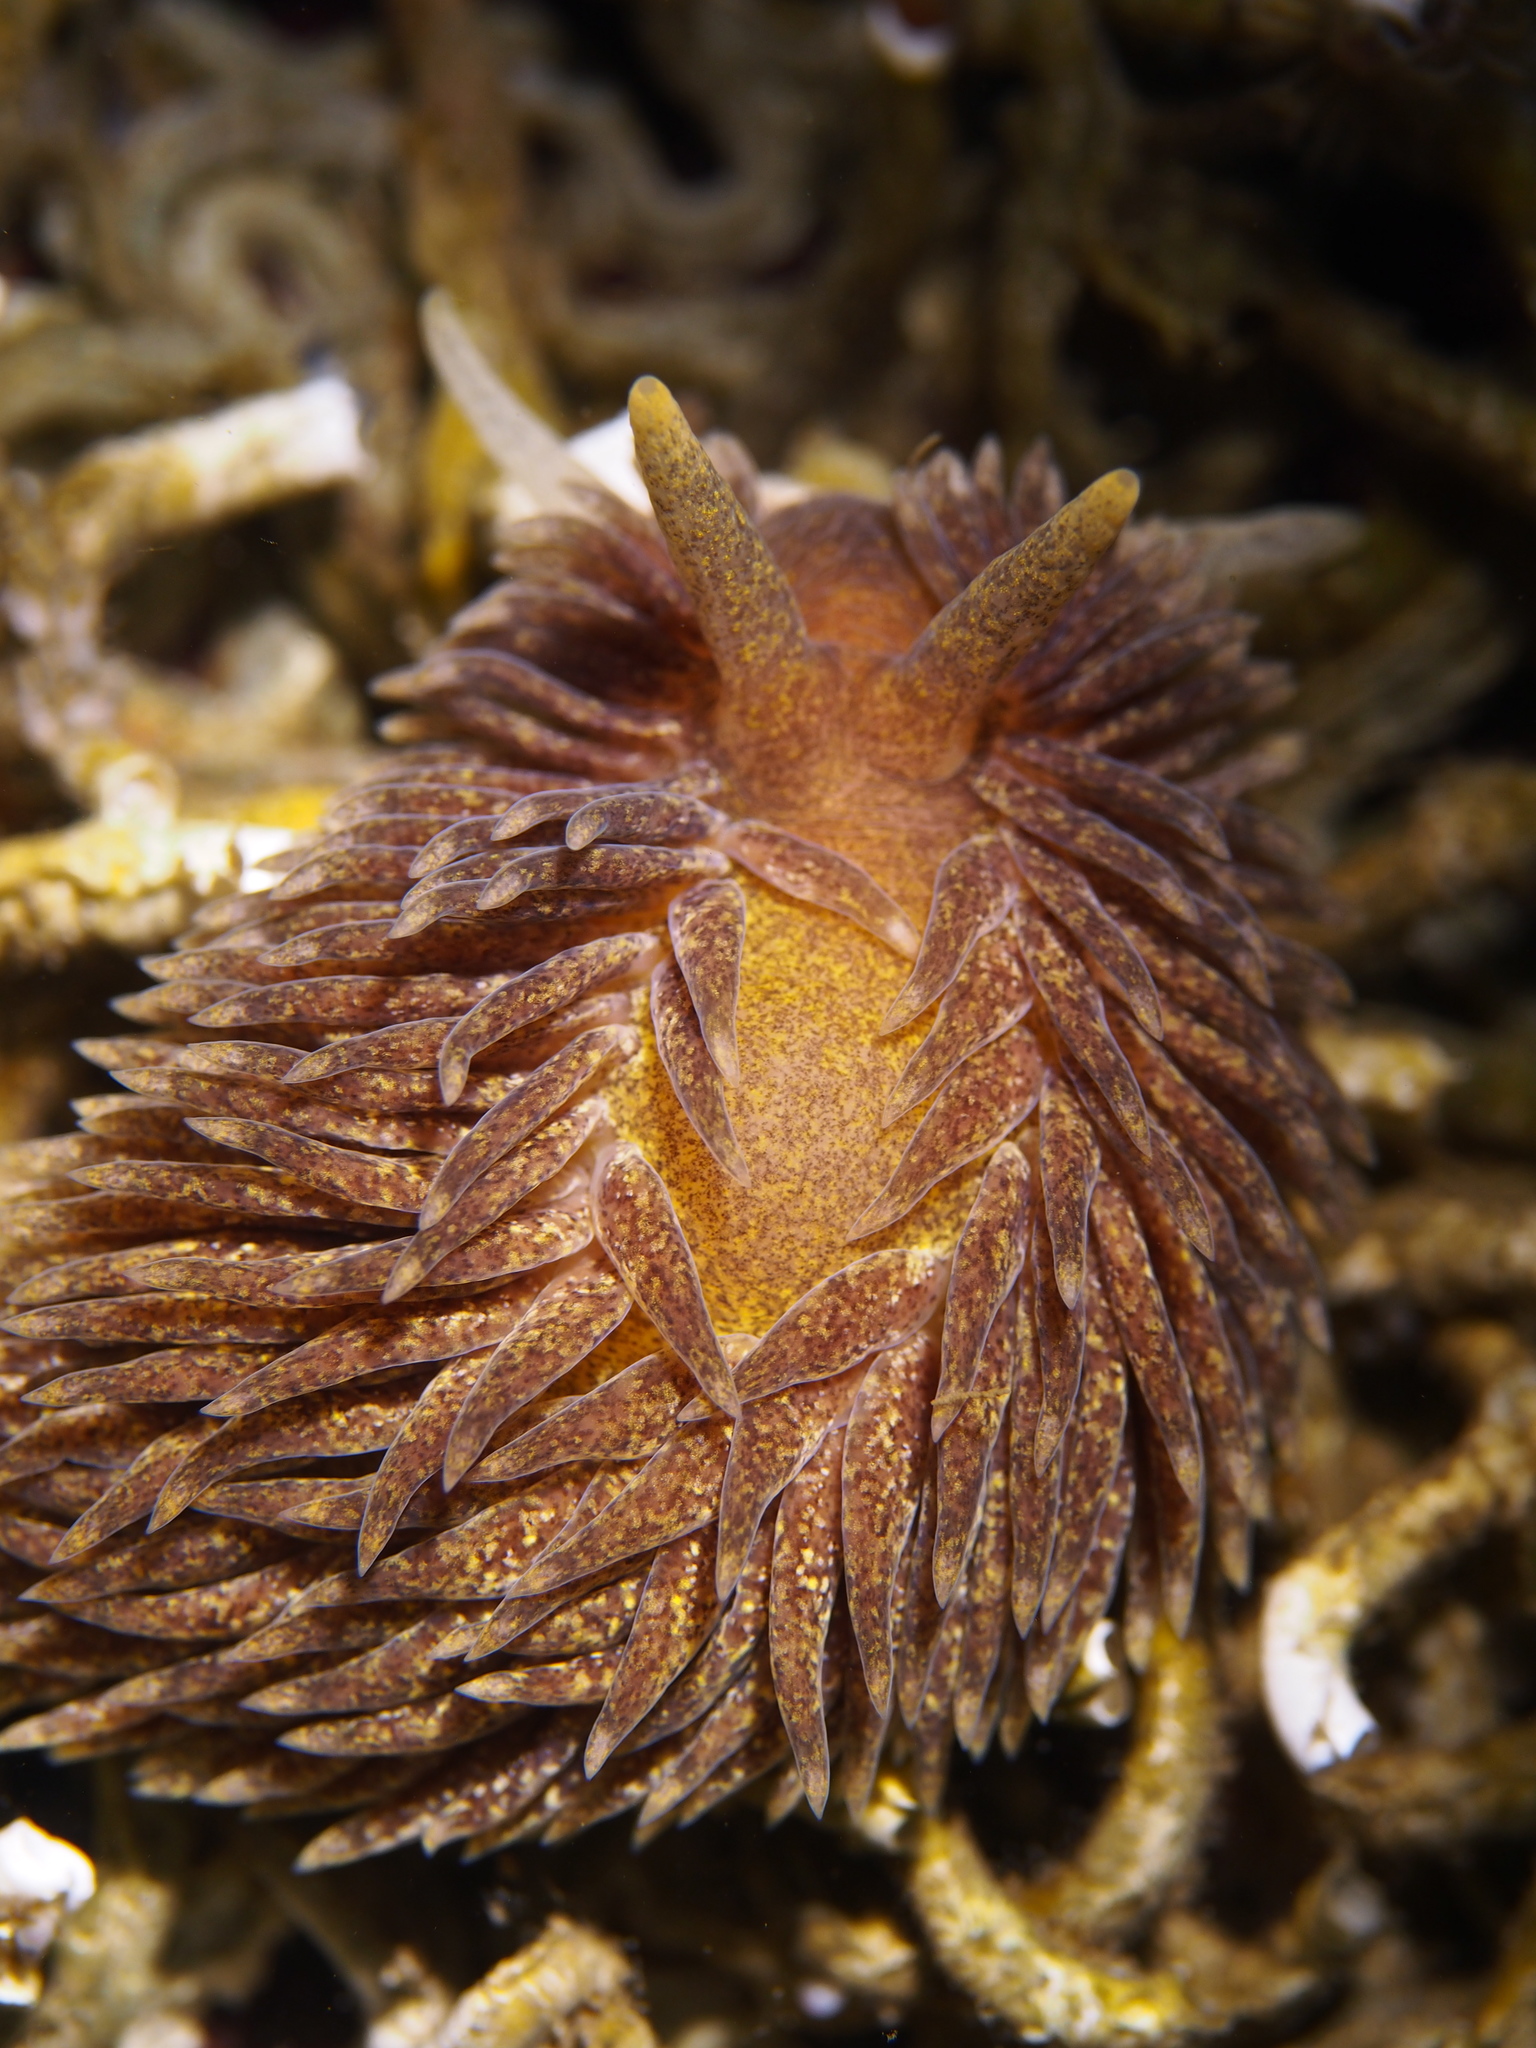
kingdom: Animalia
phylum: Mollusca
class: Gastropoda
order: Nudibranchia
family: Aeolidiidae
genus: Aeolidia
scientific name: Aeolidia papillosa
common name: Common grey sea slug
